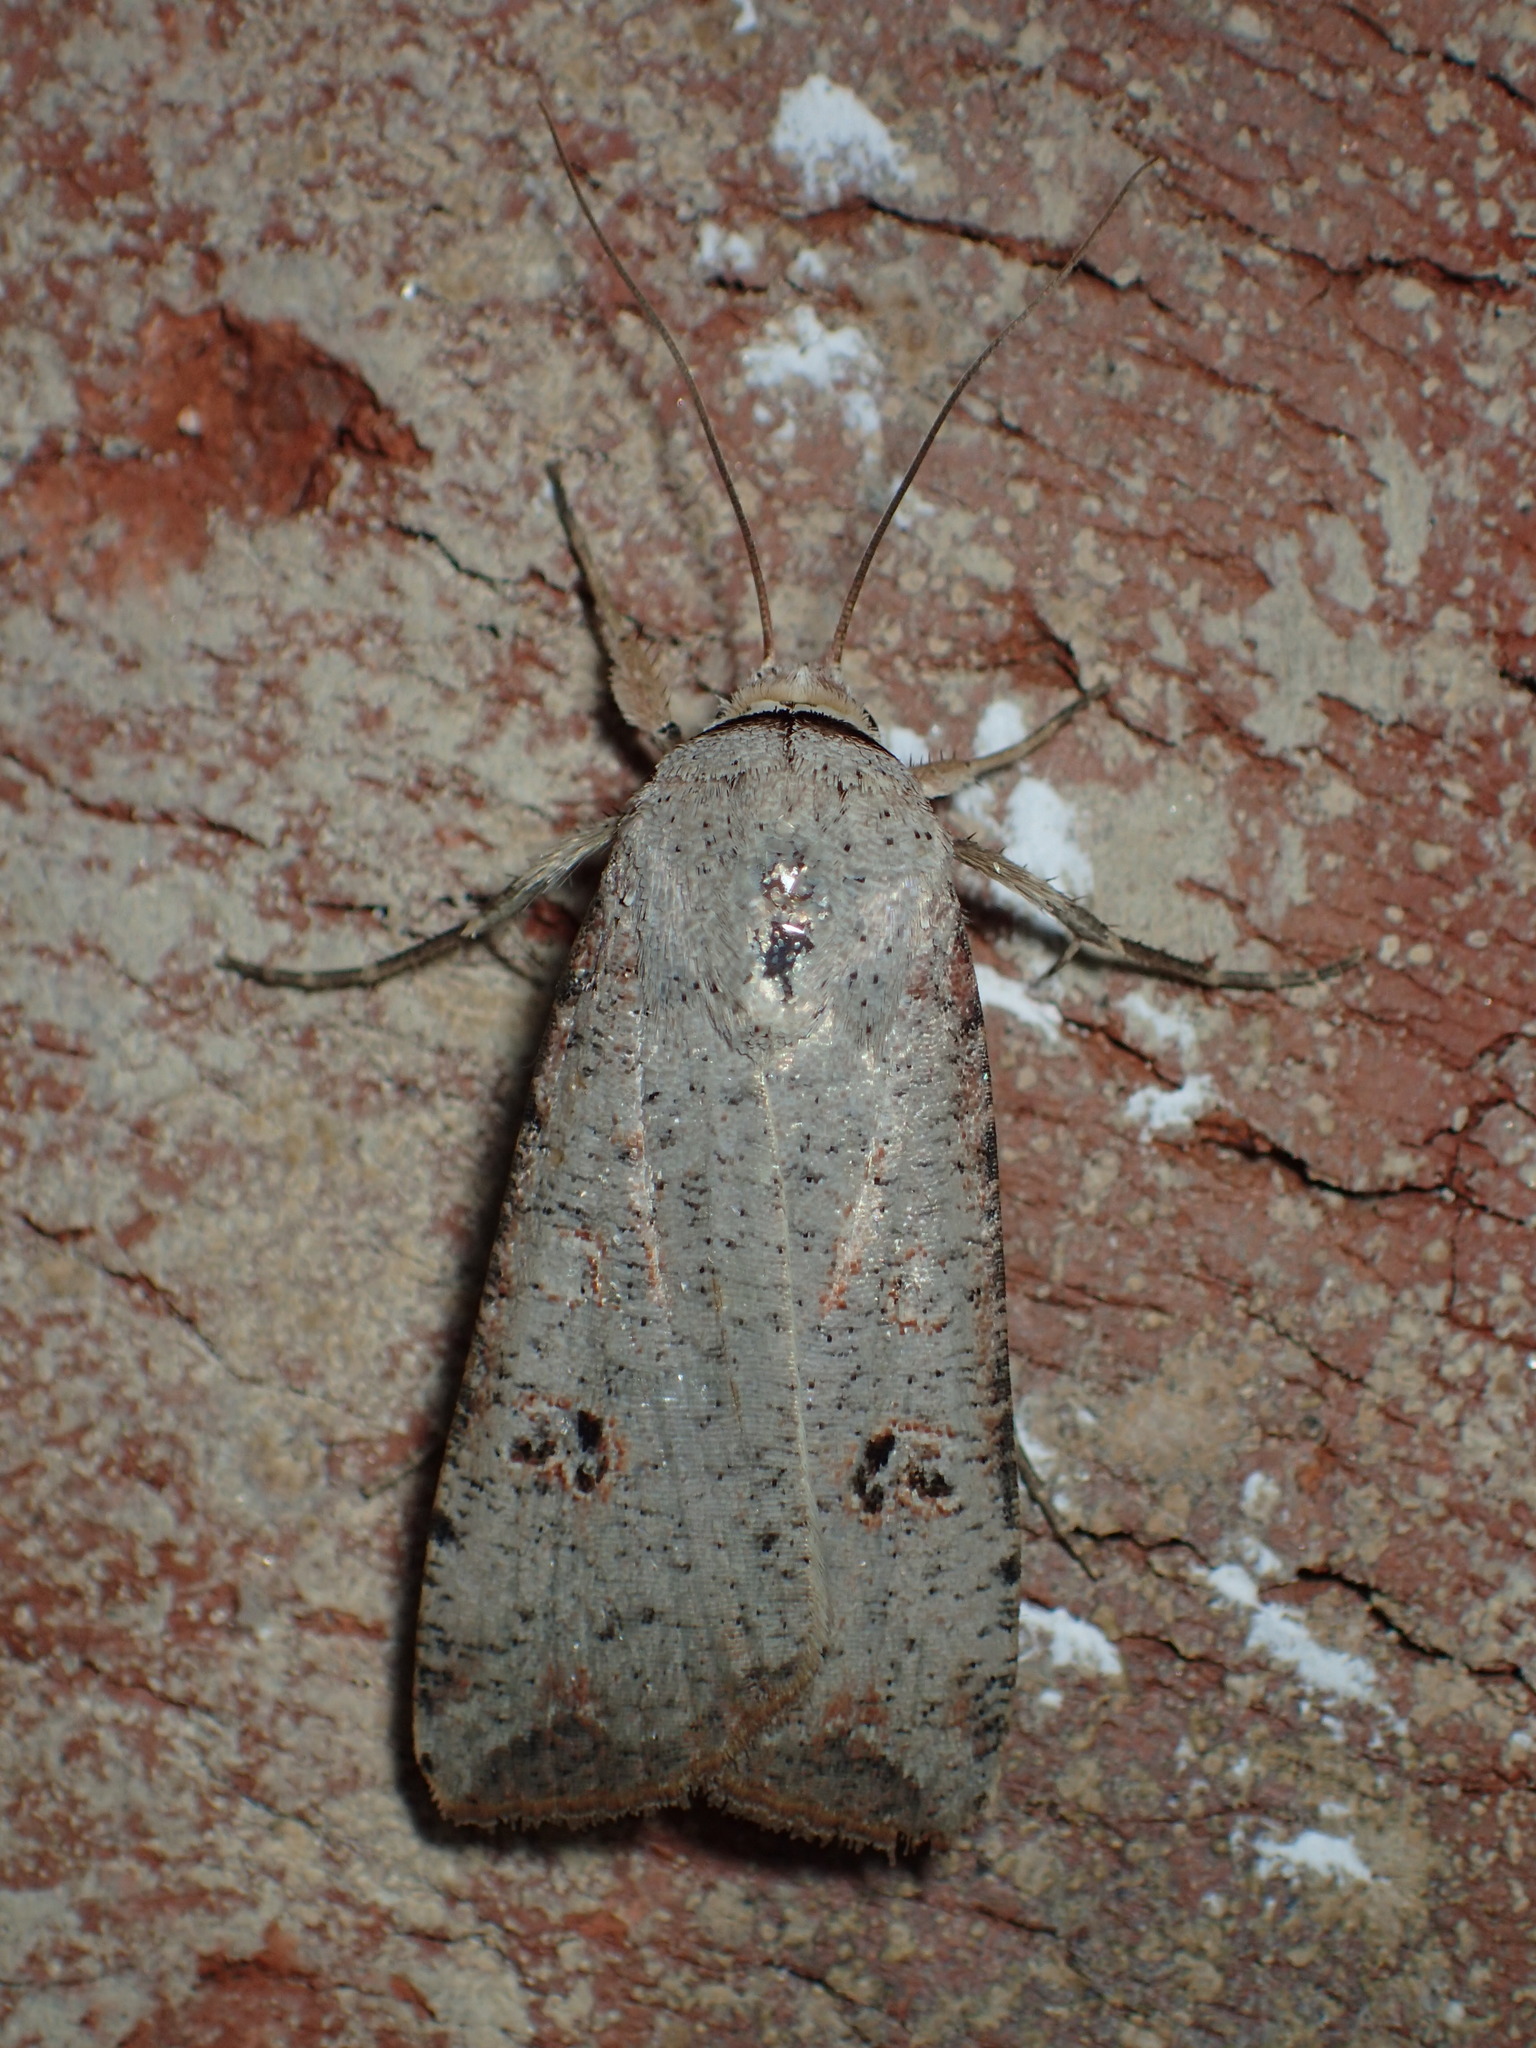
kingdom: Animalia
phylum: Arthropoda
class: Insecta
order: Lepidoptera
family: Noctuidae
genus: Anicla
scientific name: Anicla infecta
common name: Green cutworm
